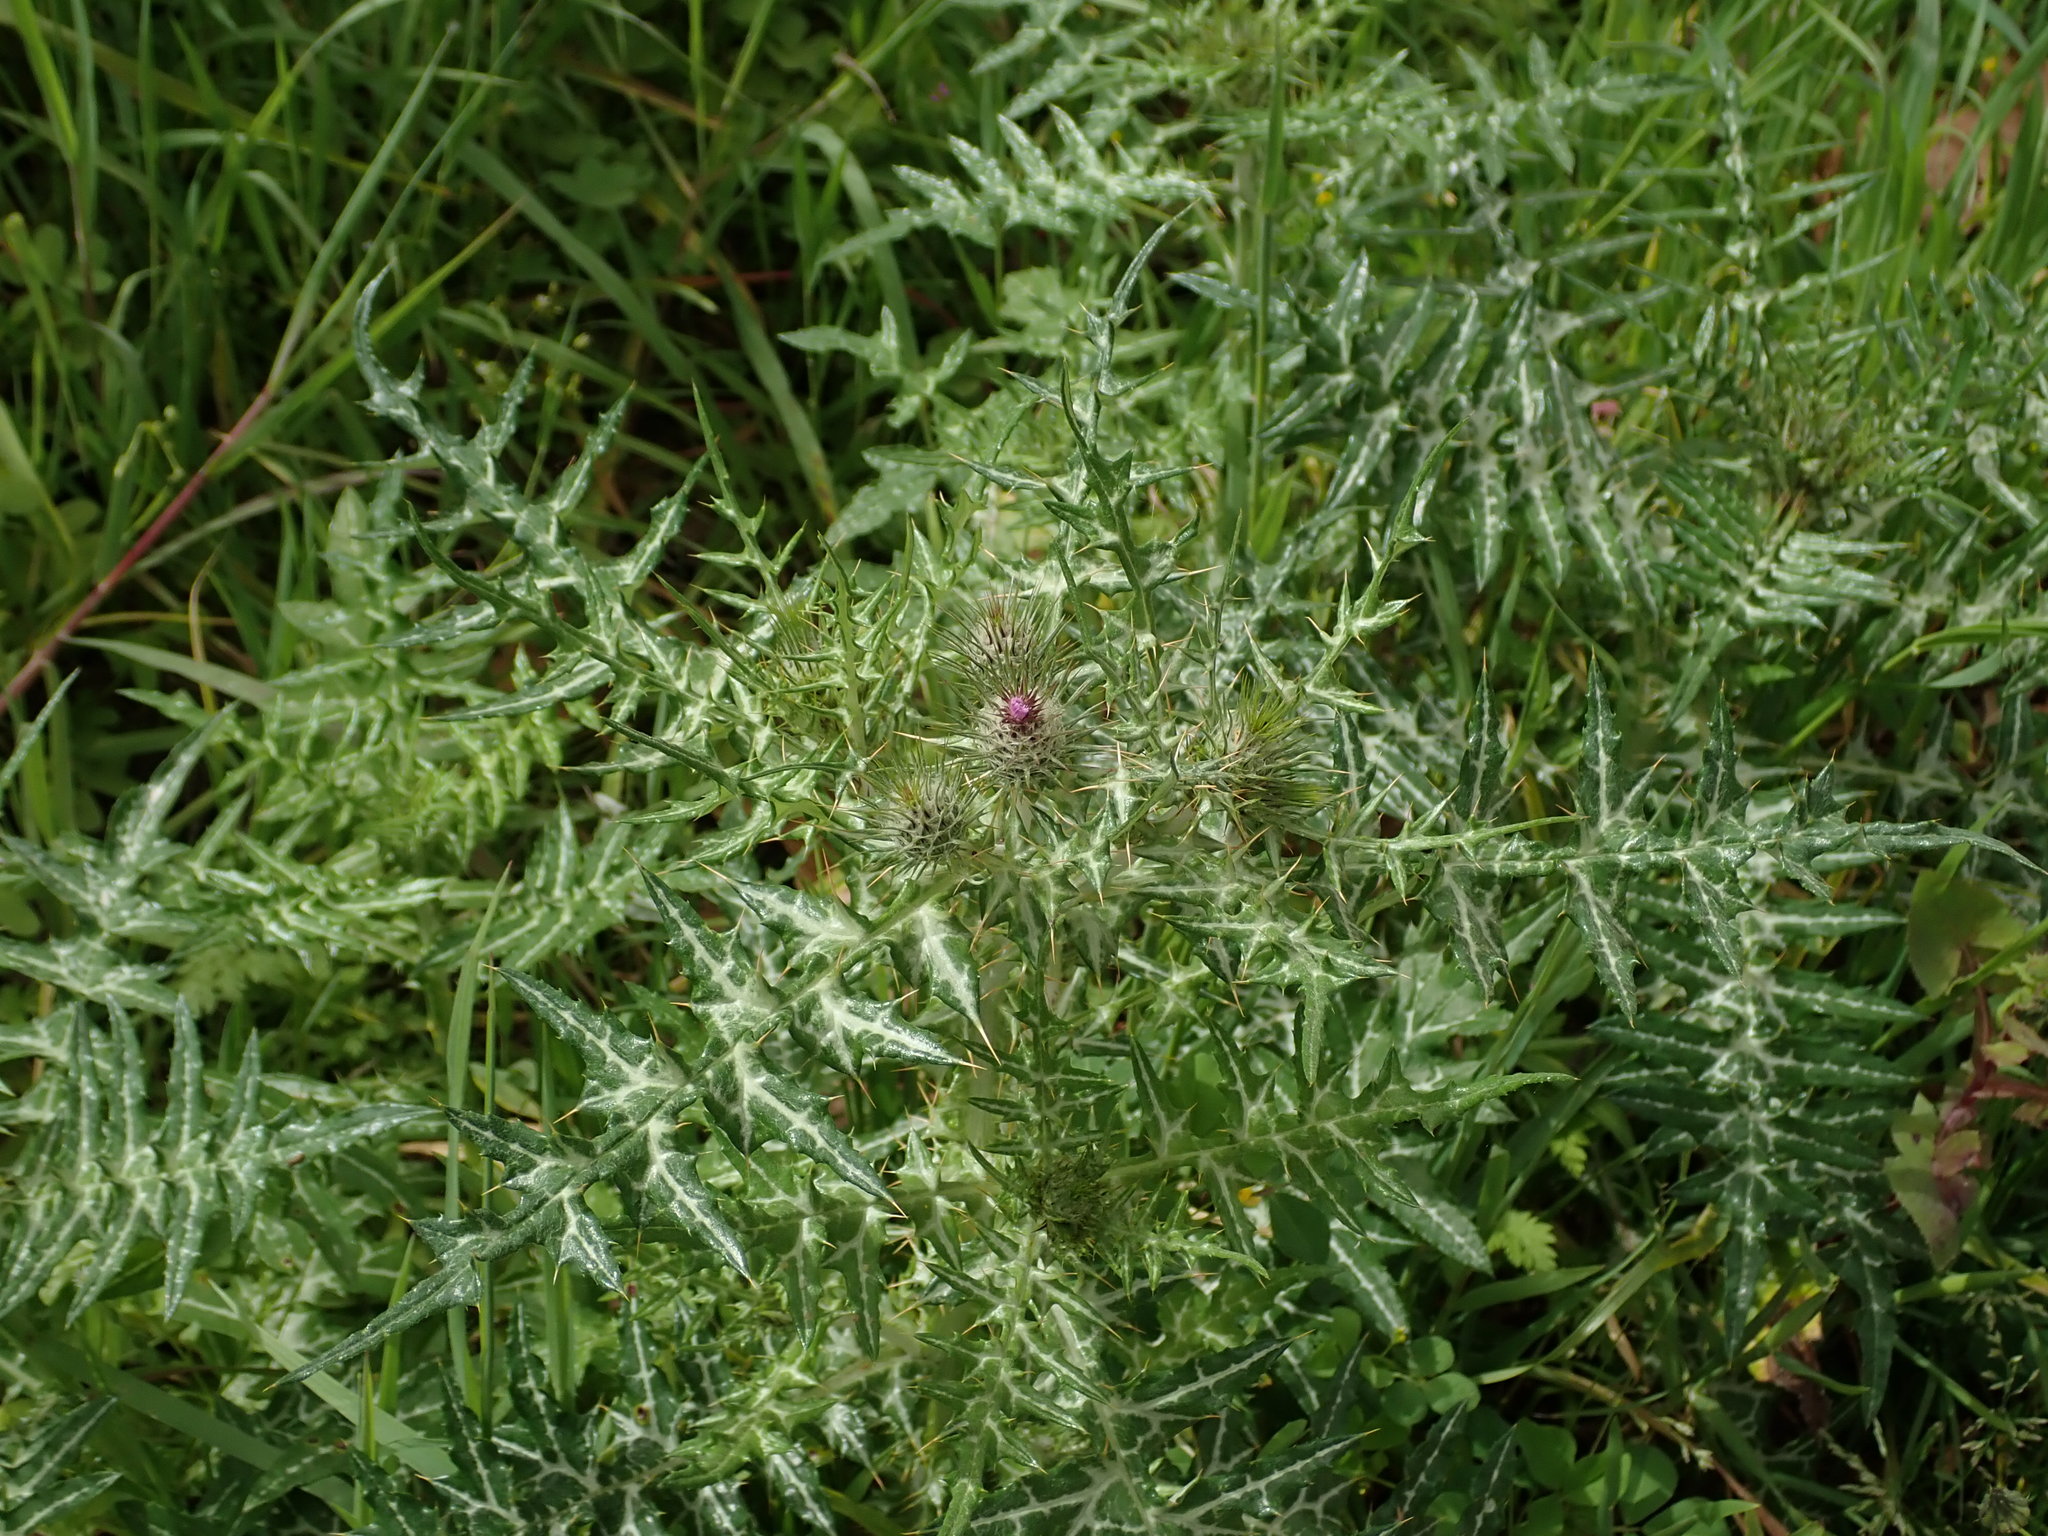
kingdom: Plantae
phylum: Tracheophyta
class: Magnoliopsida
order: Asterales
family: Asteraceae
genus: Galactites
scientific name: Galactites tomentosa
